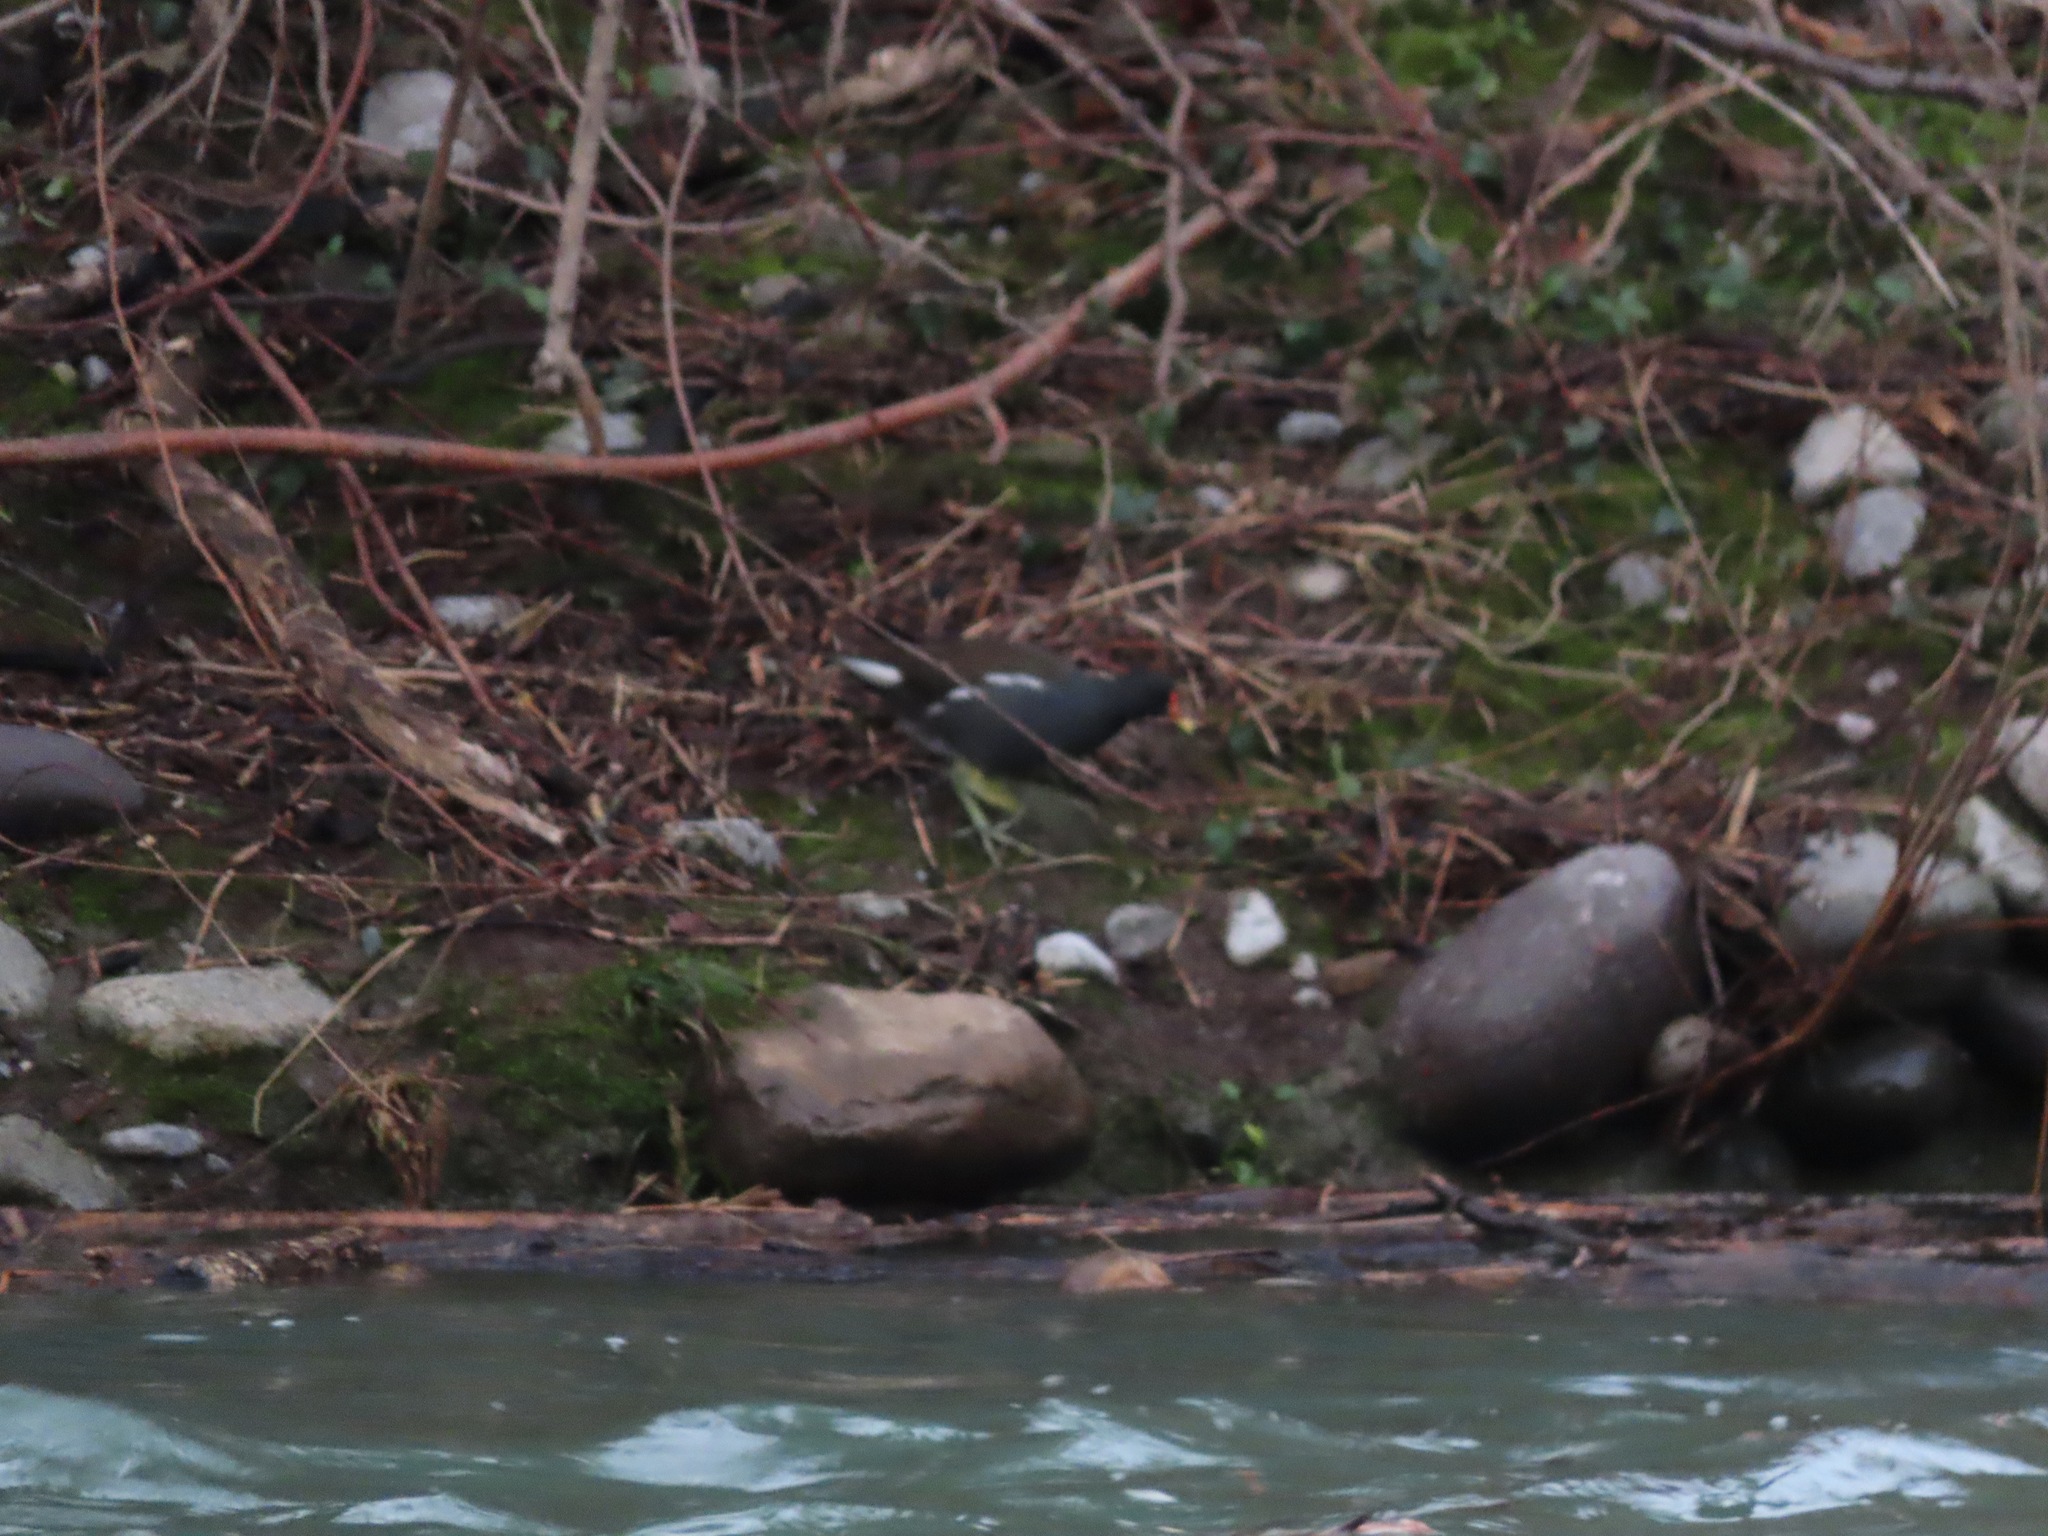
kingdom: Animalia
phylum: Chordata
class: Aves
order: Gruiformes
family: Rallidae
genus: Gallinula
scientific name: Gallinula chloropus
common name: Common moorhen
